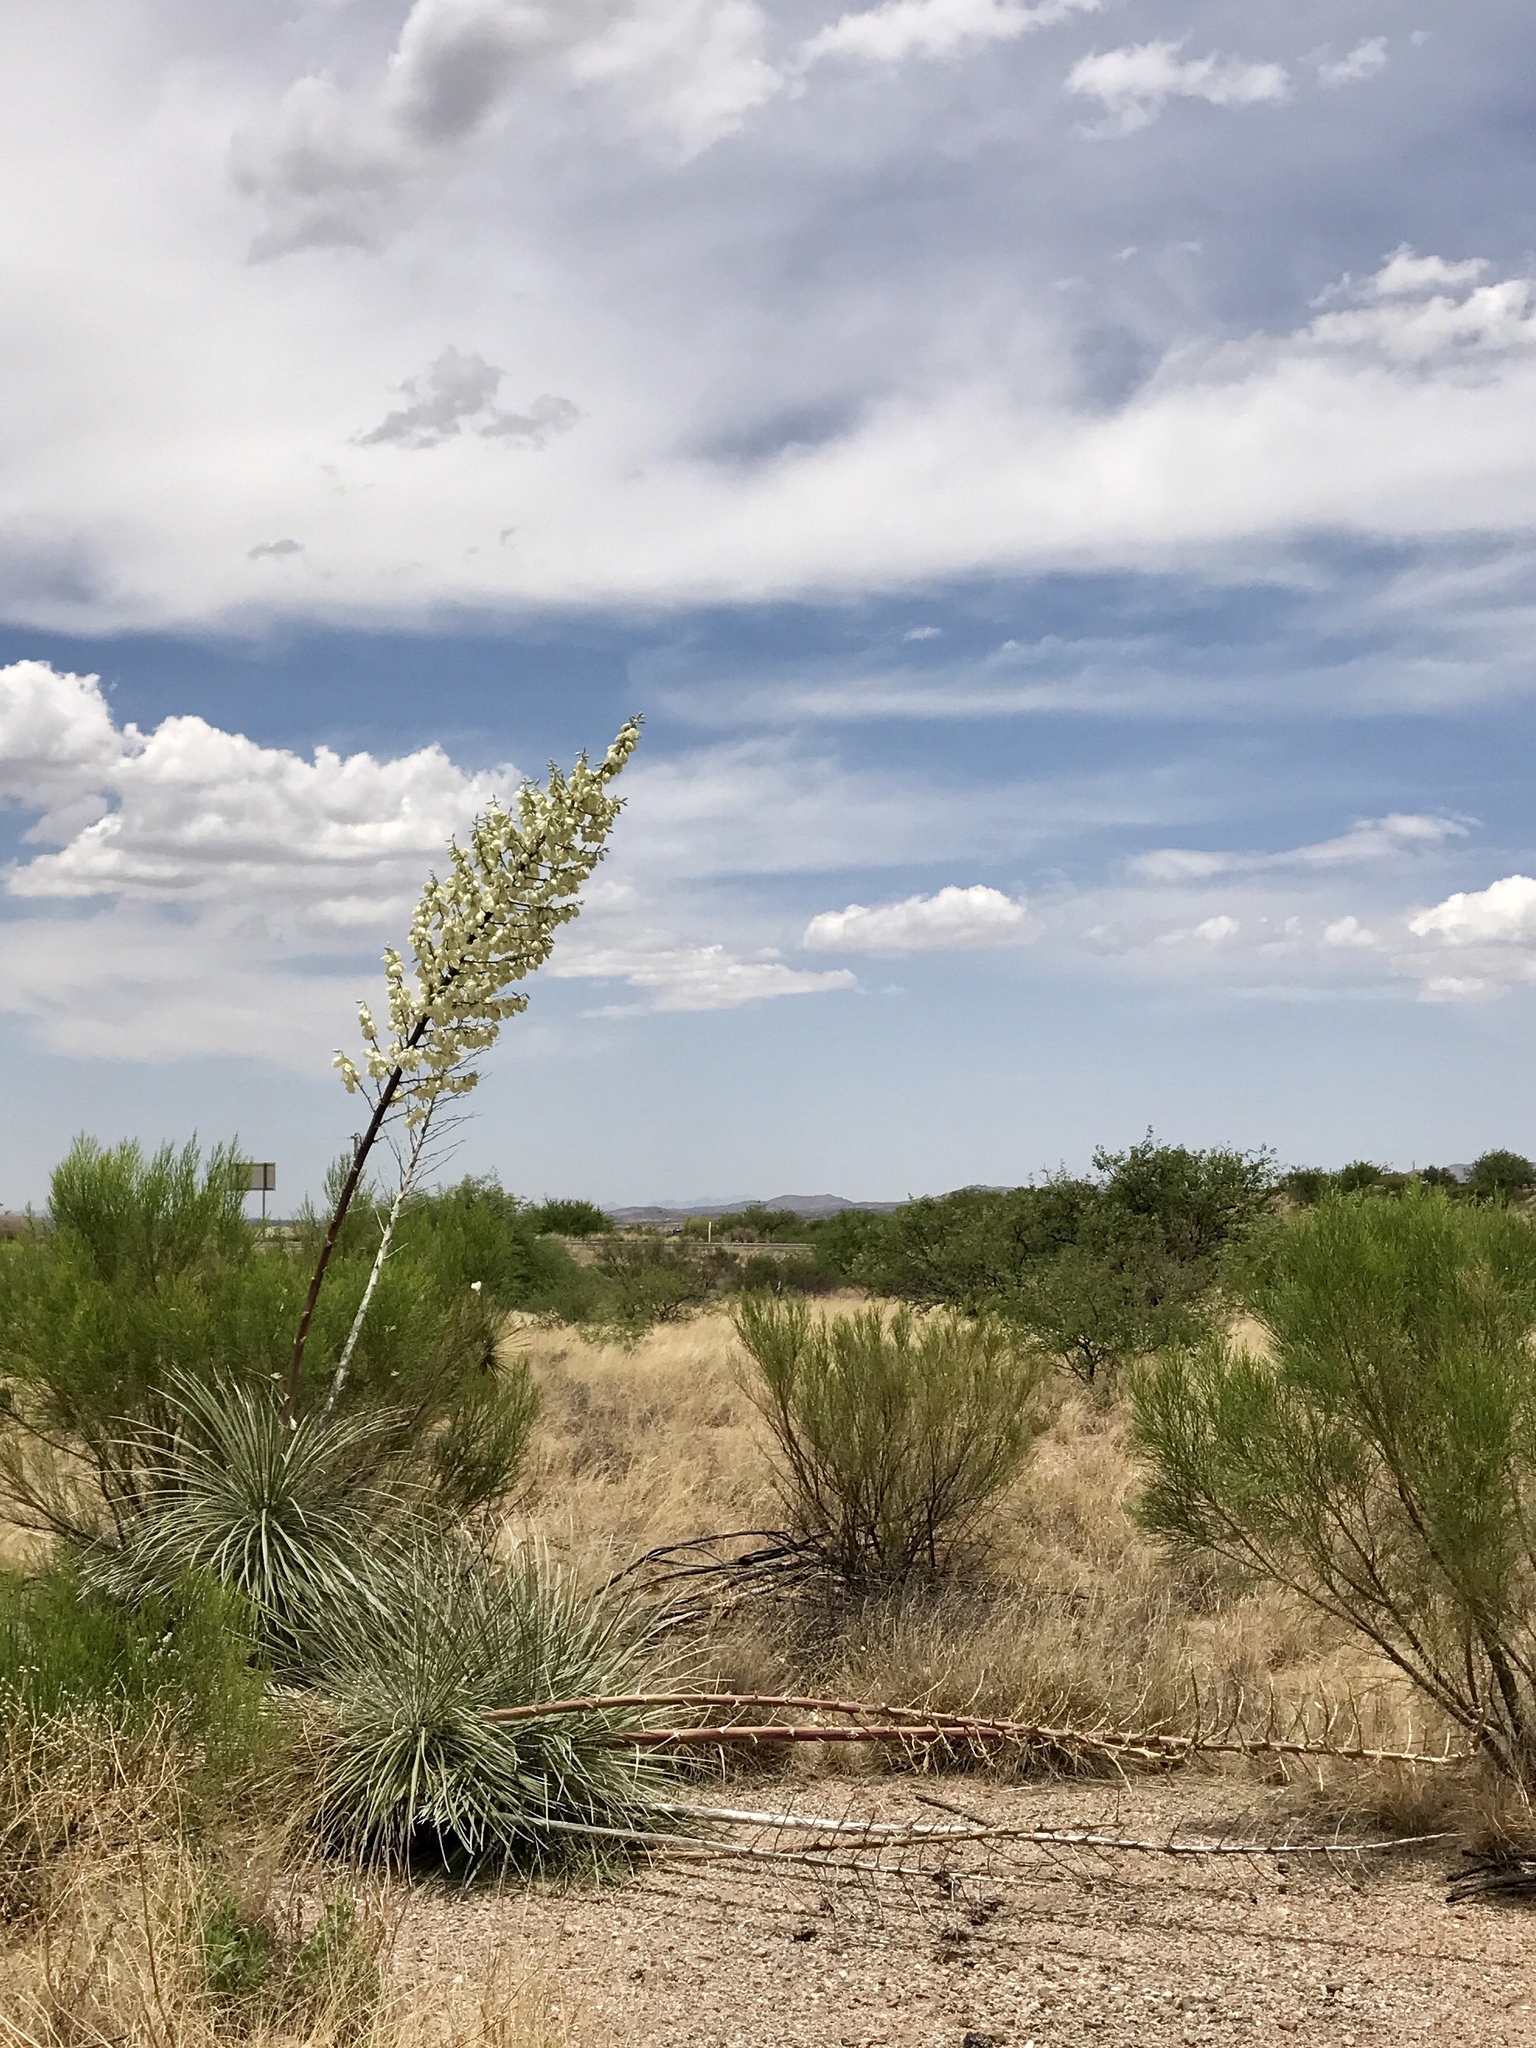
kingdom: Plantae
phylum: Tracheophyta
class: Liliopsida
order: Asparagales
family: Asparagaceae
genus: Yucca
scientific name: Yucca elata
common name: Palmella
